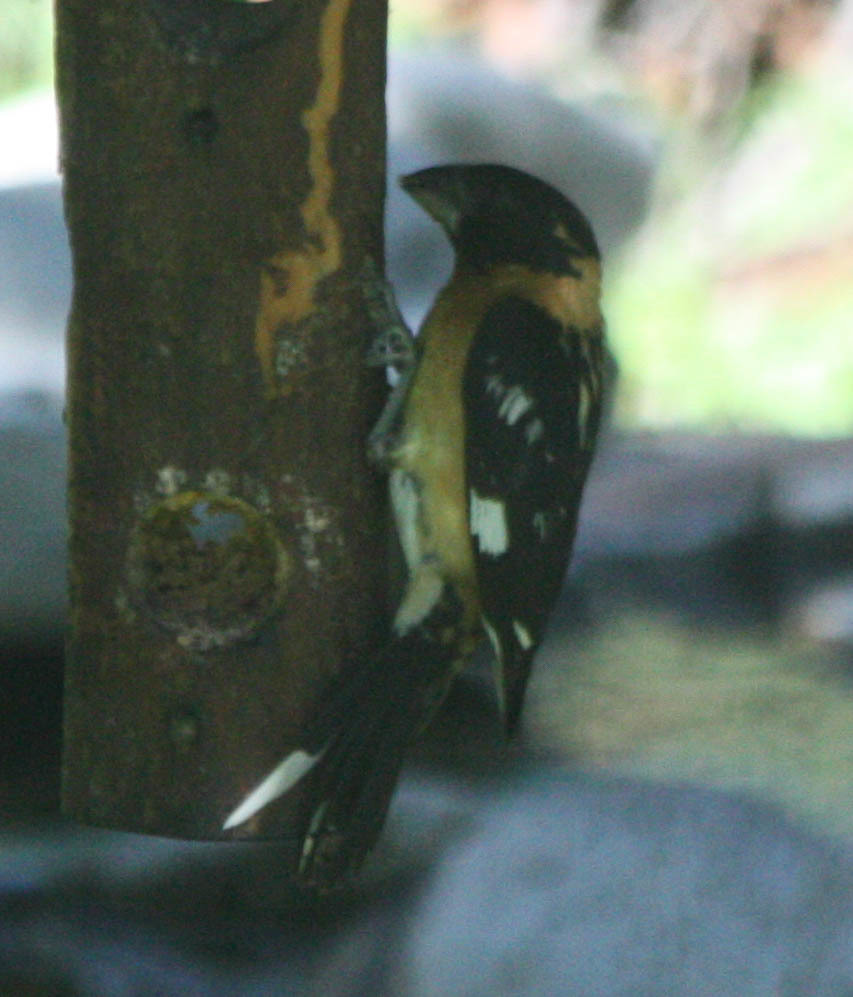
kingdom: Animalia
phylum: Chordata
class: Aves
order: Passeriformes
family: Cardinalidae
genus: Pheucticus
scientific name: Pheucticus melanocephalus
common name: Black-headed grosbeak
